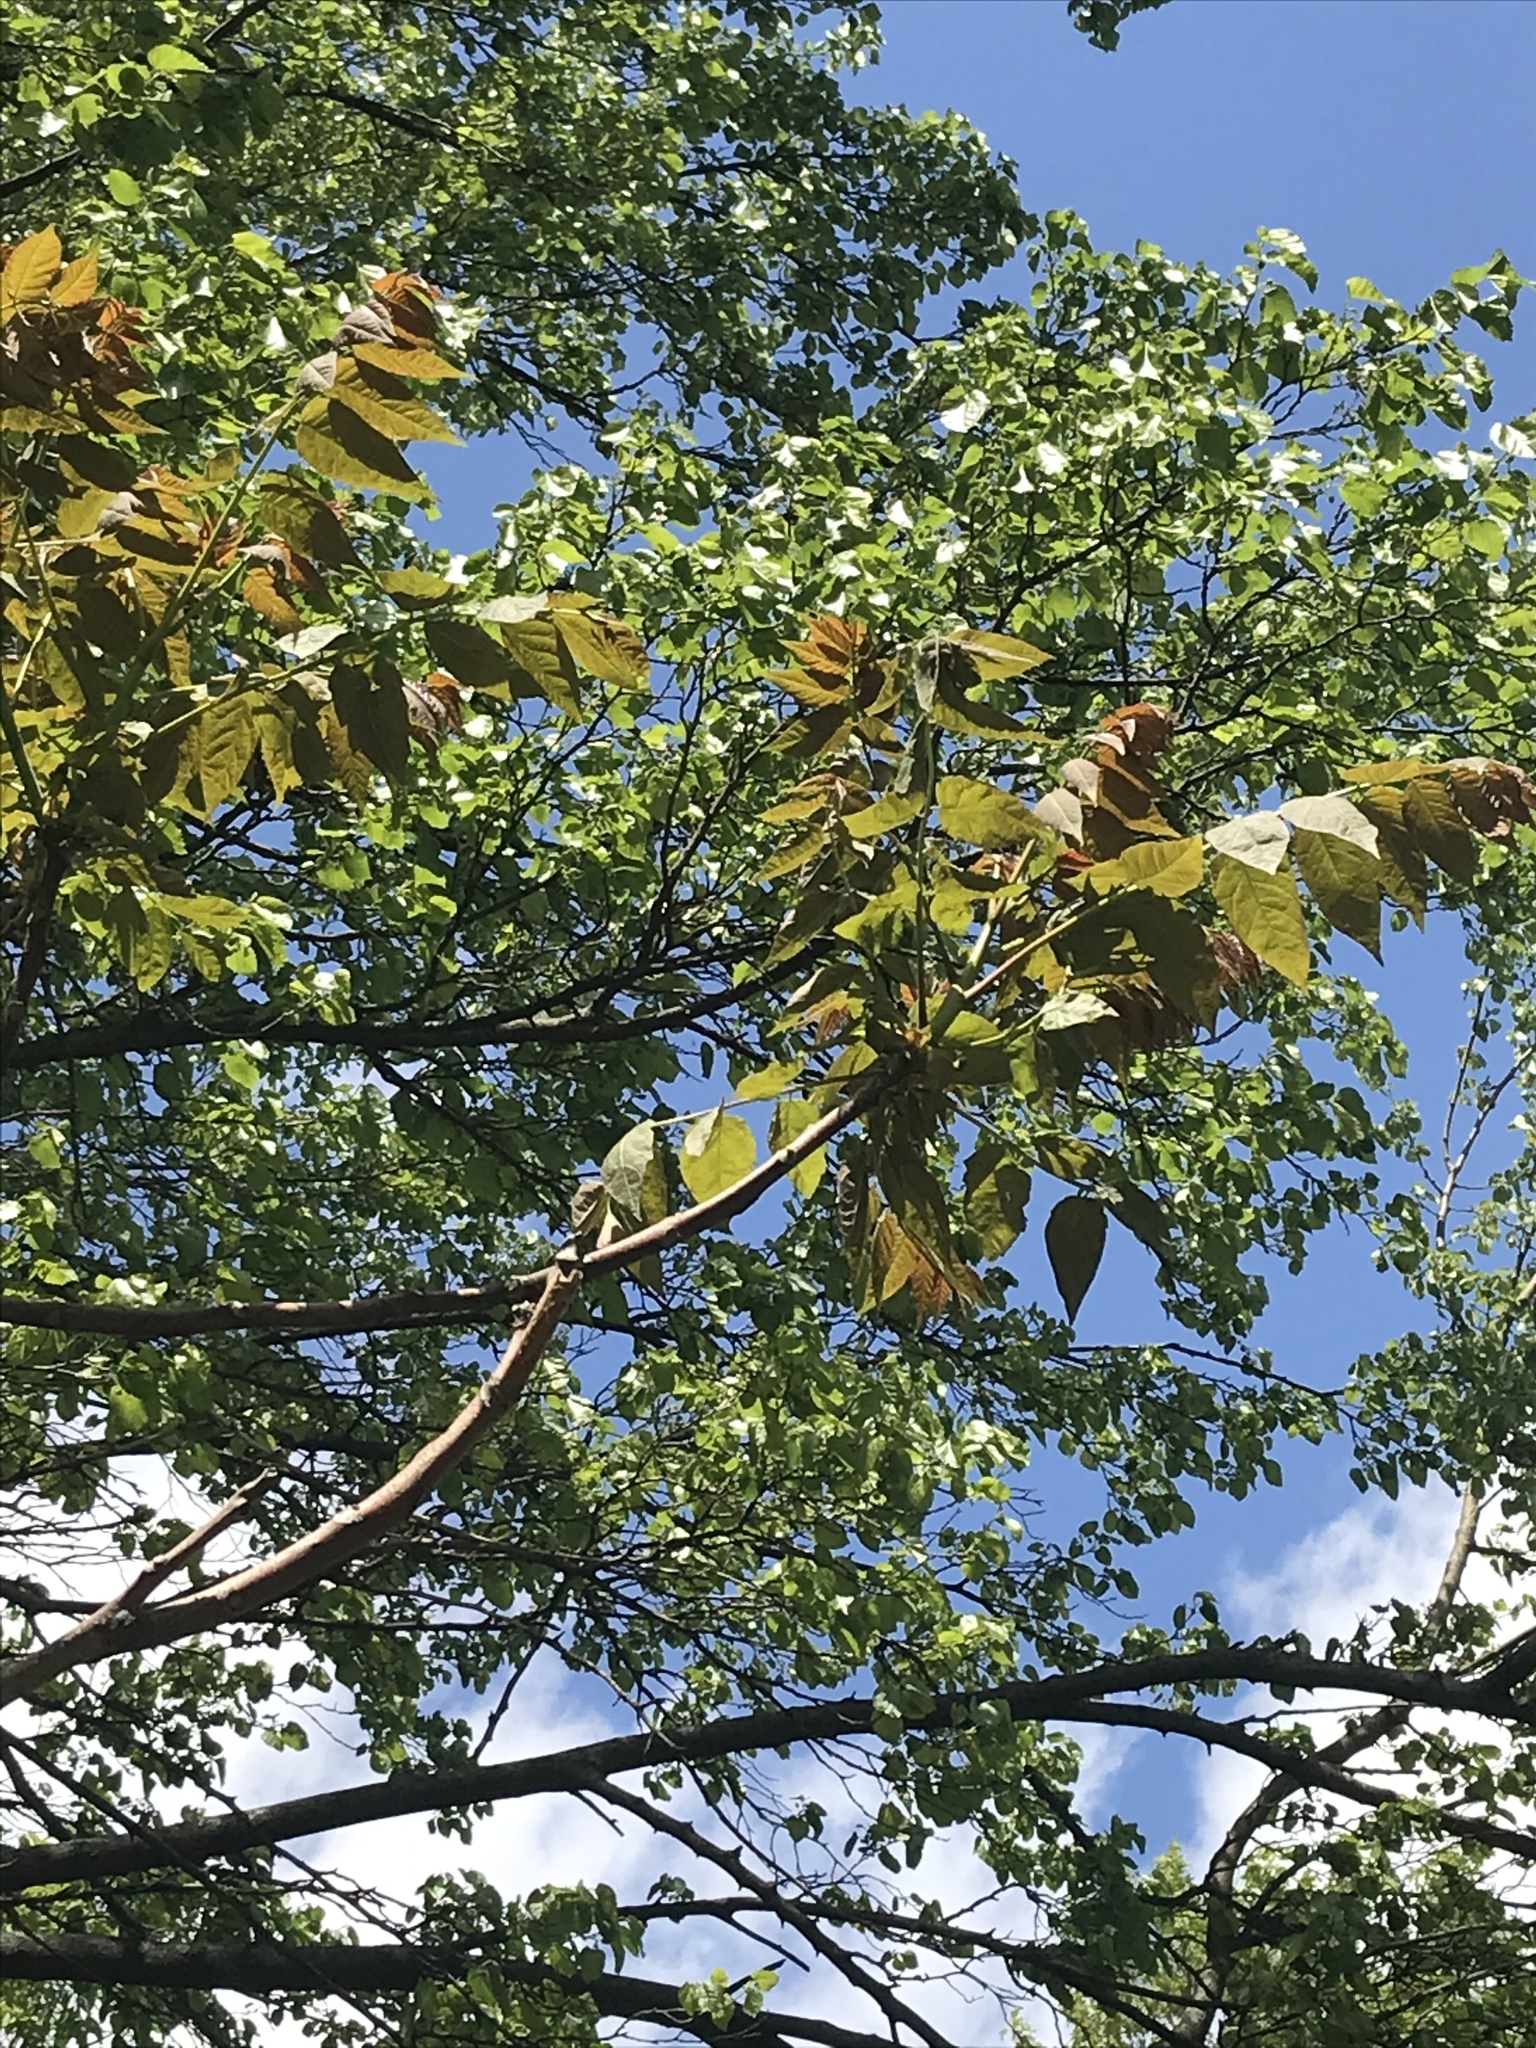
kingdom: Plantae
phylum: Tracheophyta
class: Magnoliopsida
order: Sapindales
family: Simaroubaceae
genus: Ailanthus
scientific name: Ailanthus altissima
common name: Tree-of-heaven
